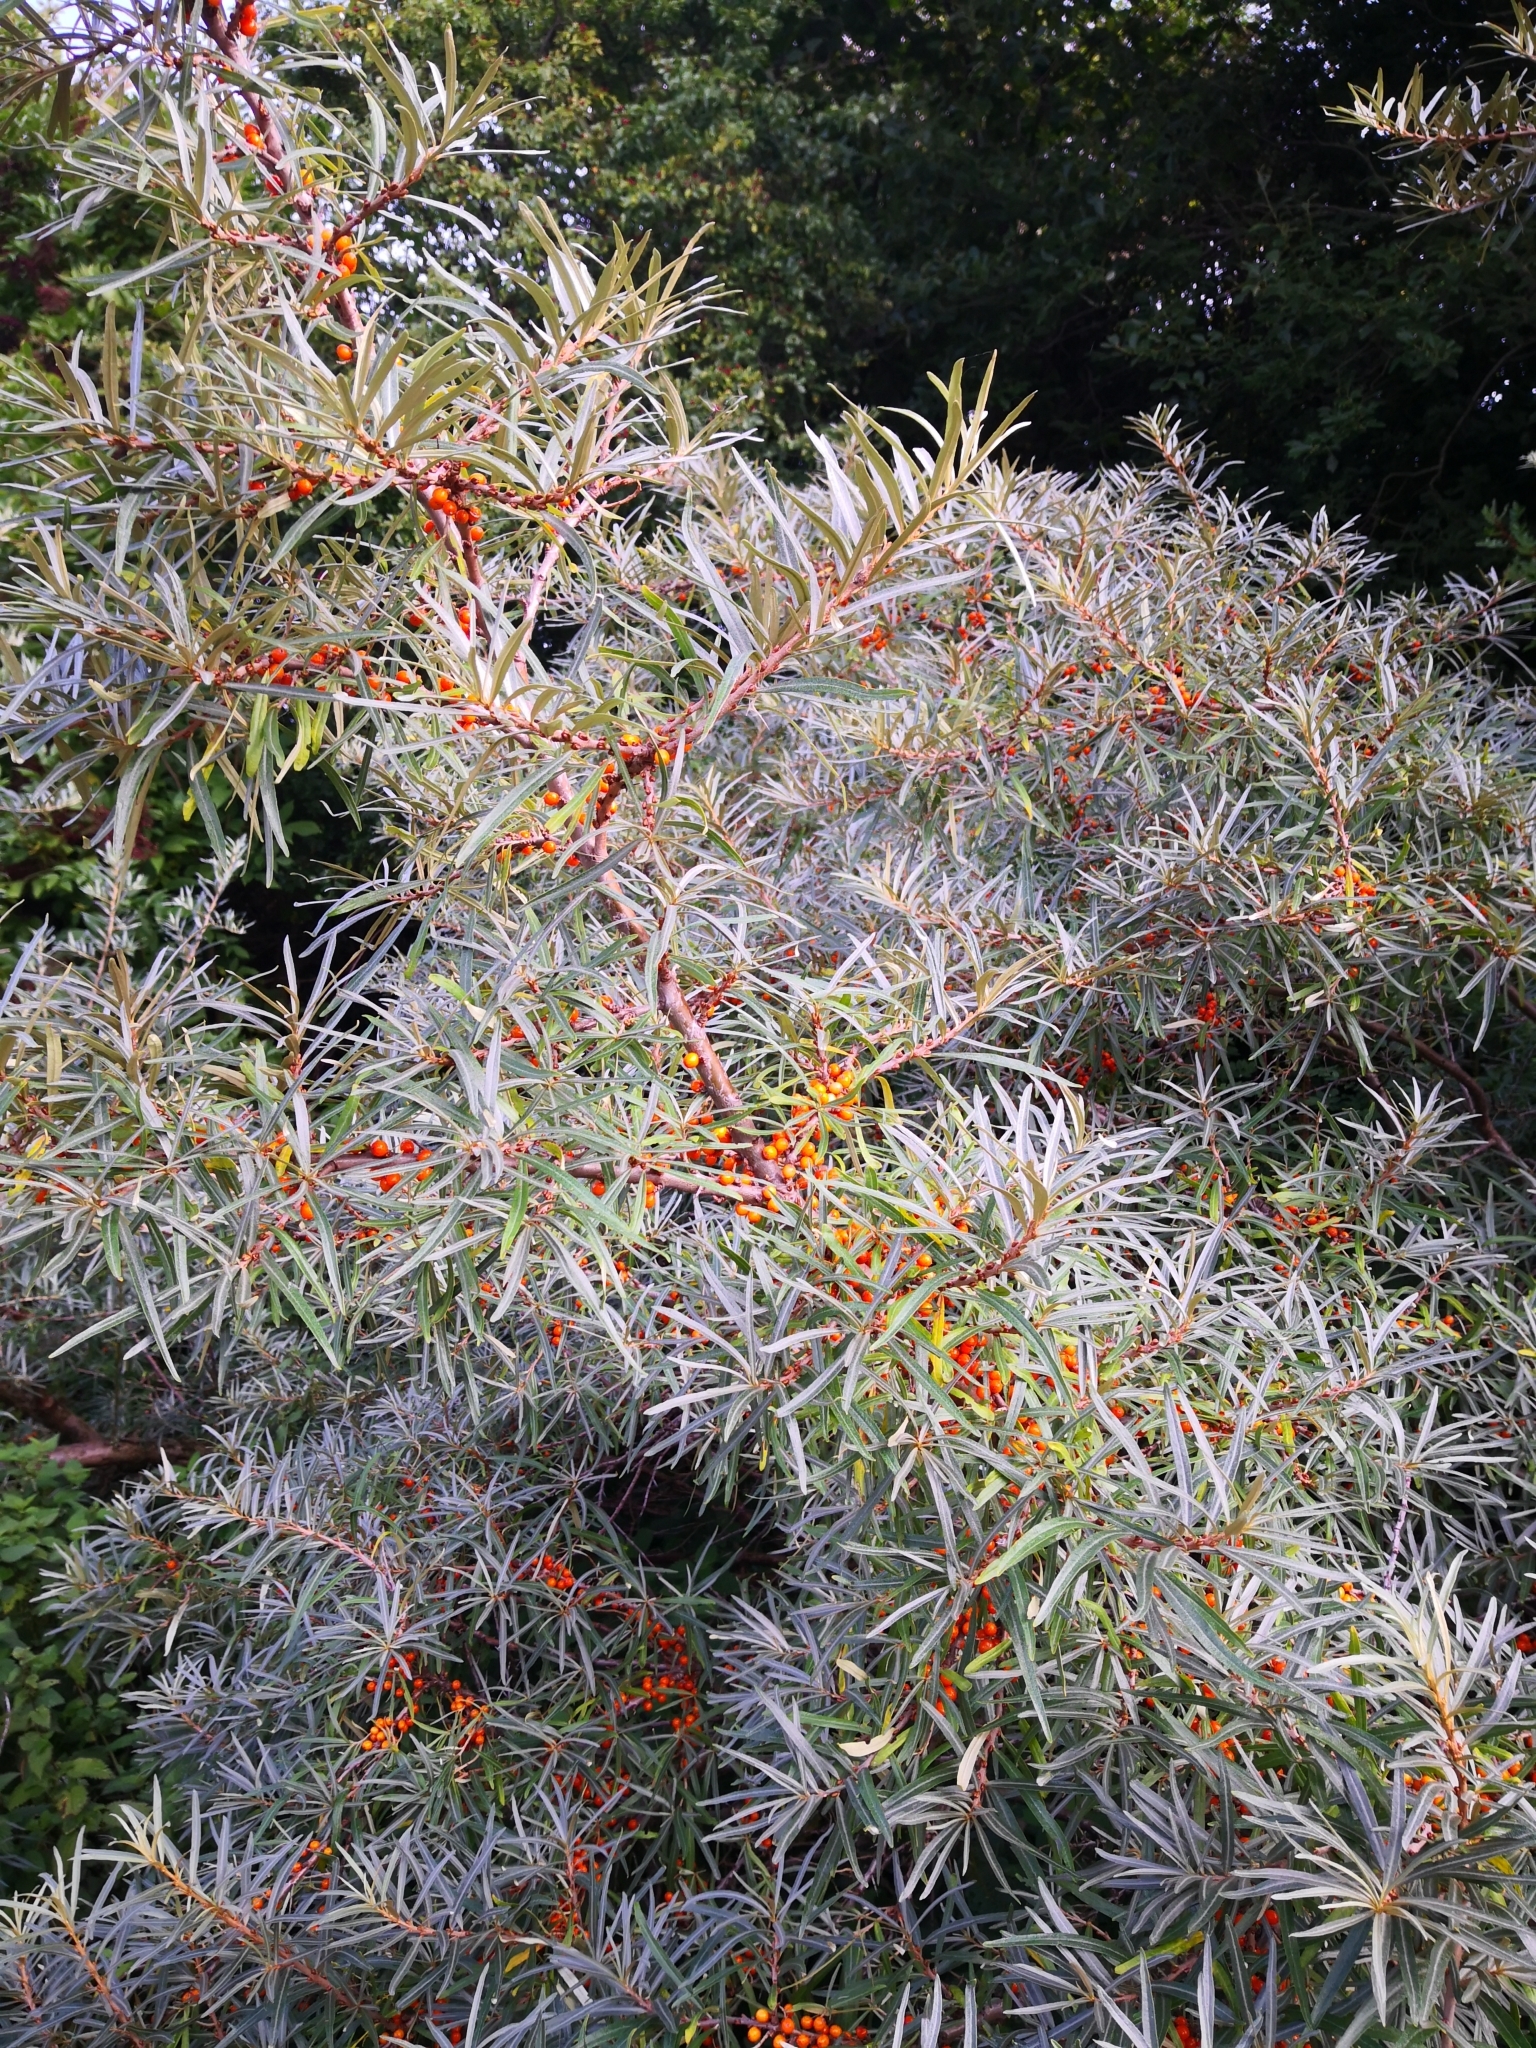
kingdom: Plantae
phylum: Tracheophyta
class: Magnoliopsida
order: Rosales
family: Elaeagnaceae
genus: Hippophae
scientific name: Hippophae rhamnoides
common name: Sea-buckthorn
